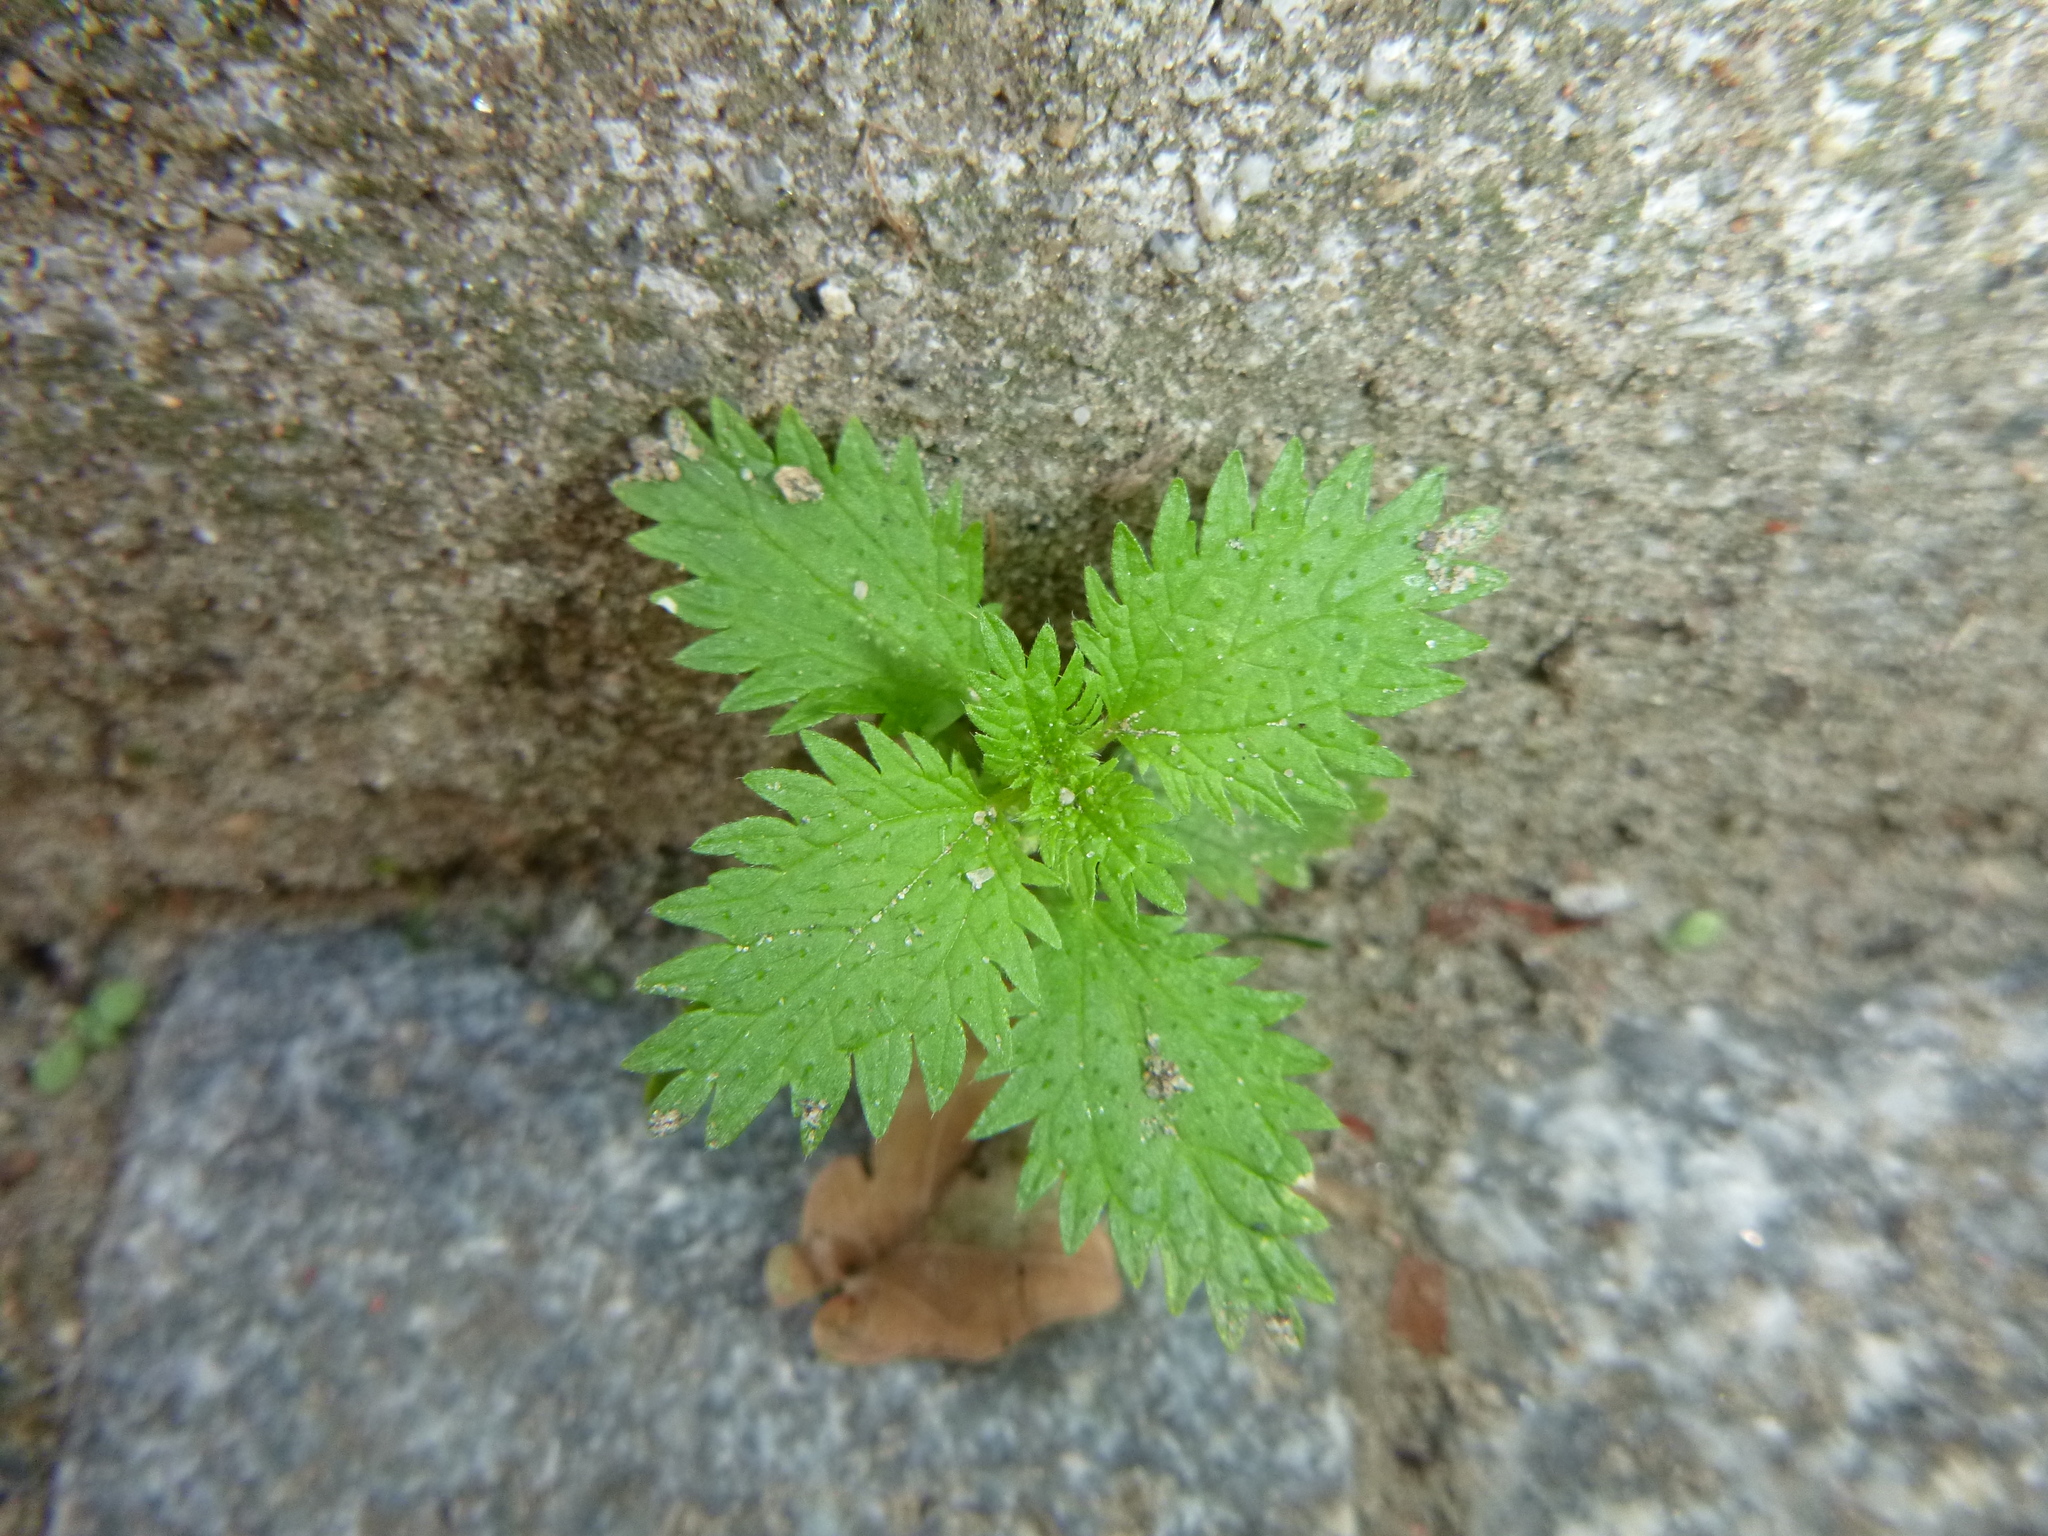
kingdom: Plantae
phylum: Tracheophyta
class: Magnoliopsida
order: Rosales
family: Urticaceae
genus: Urtica
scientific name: Urtica urens
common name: Dwarf nettle
